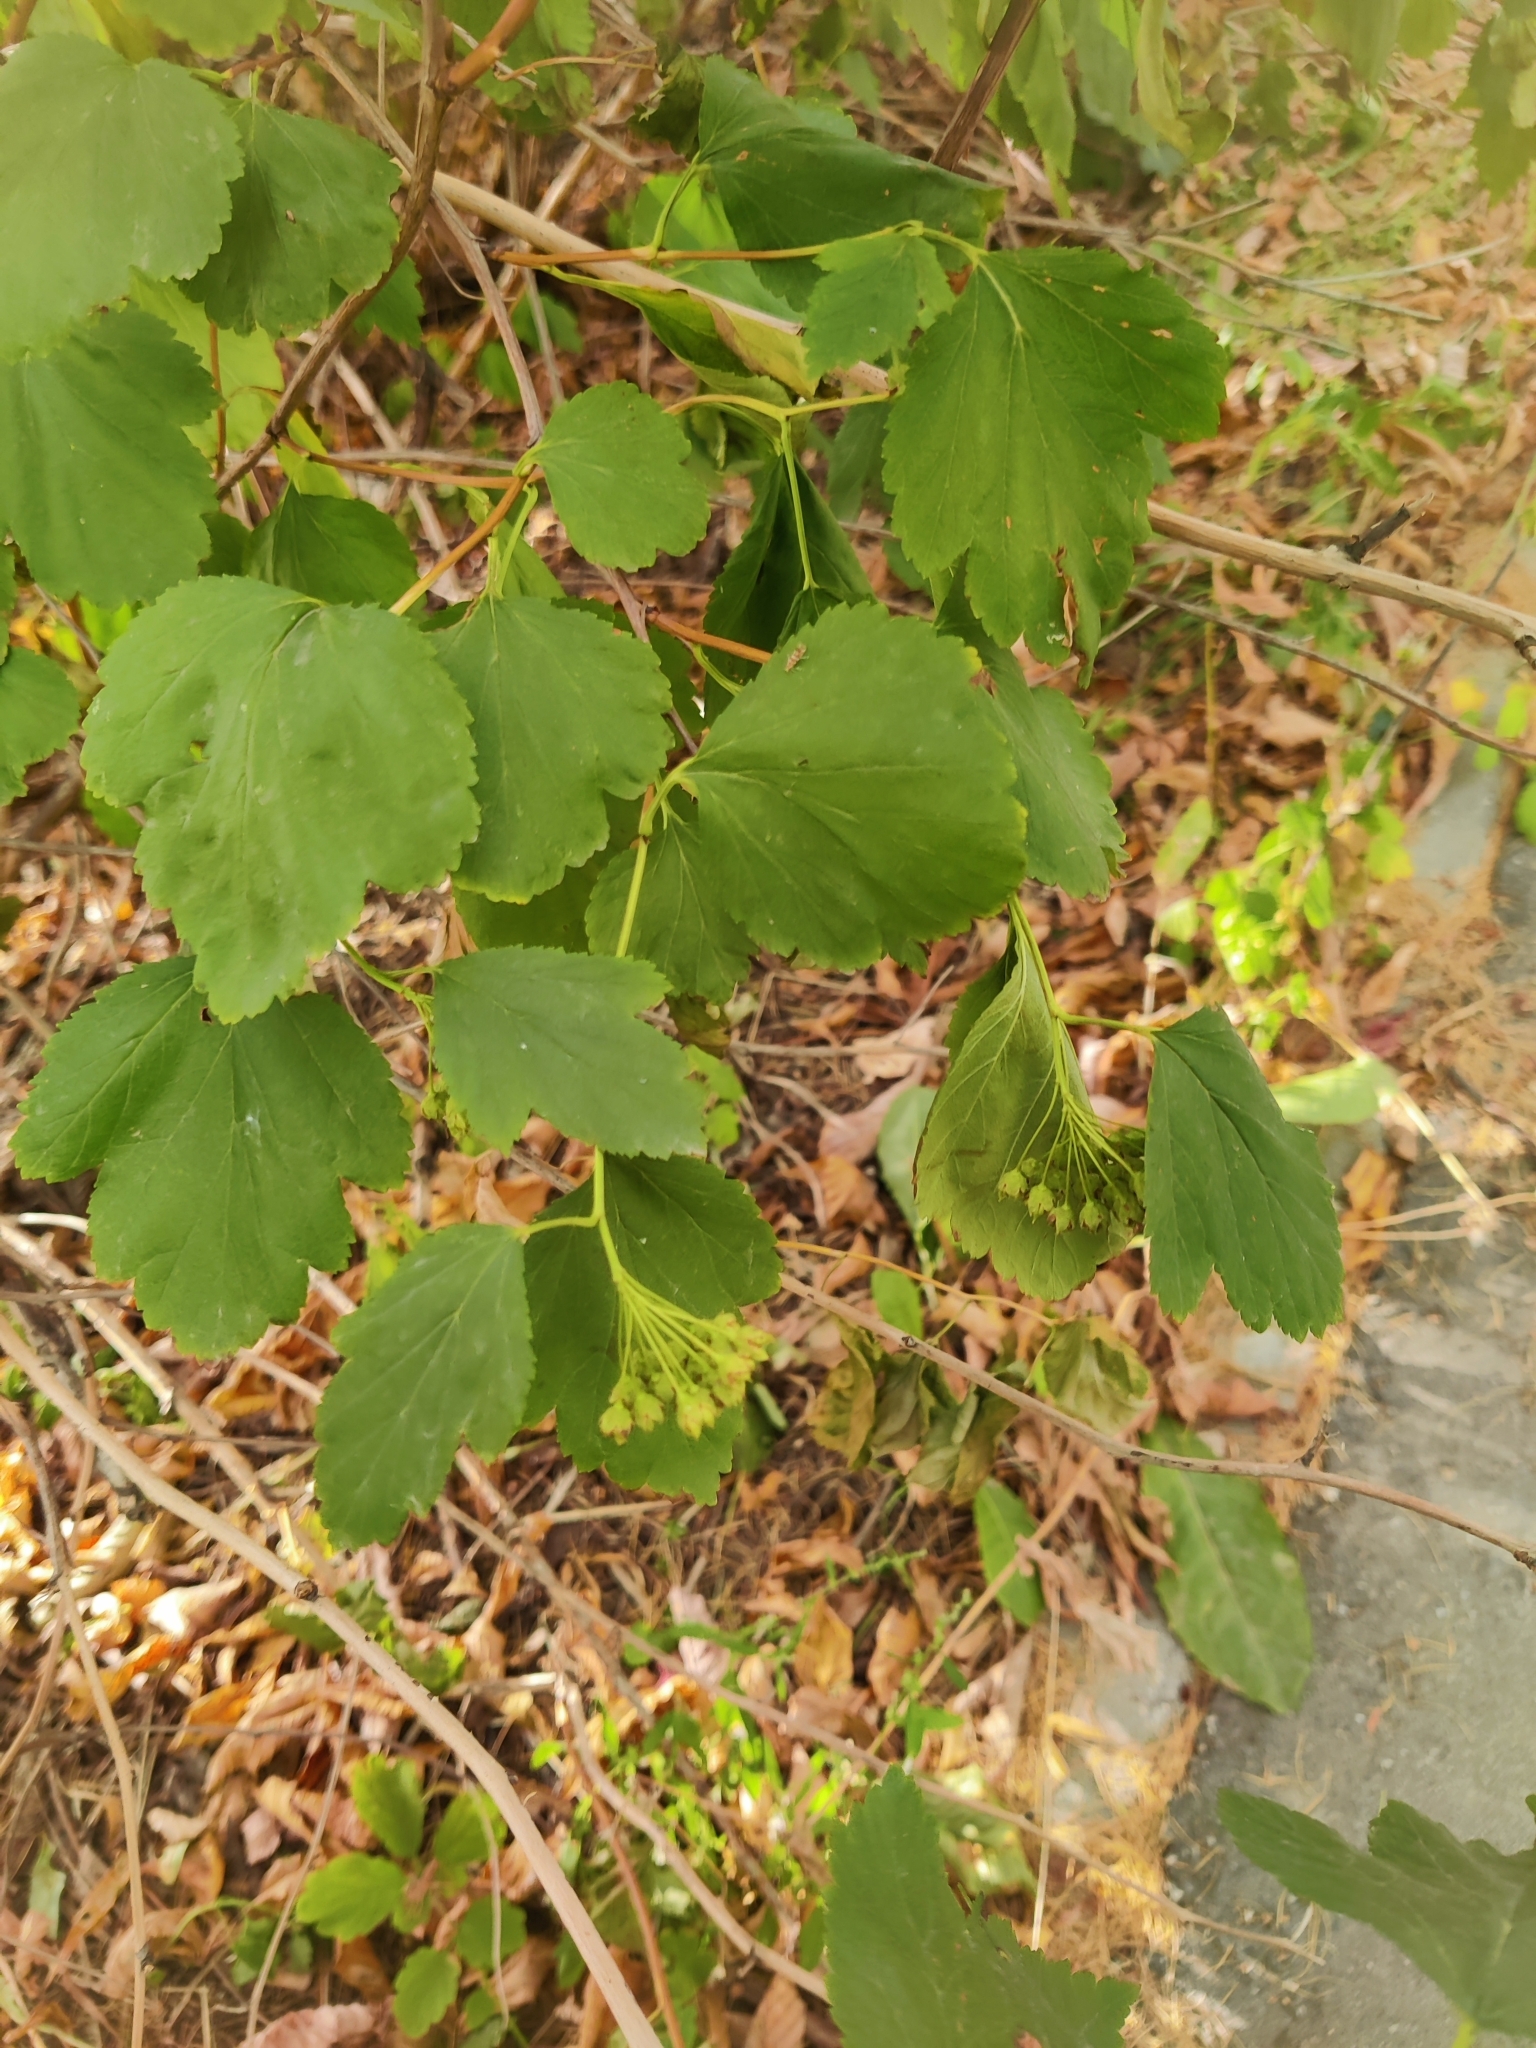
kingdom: Plantae
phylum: Tracheophyta
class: Magnoliopsida
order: Rosales
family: Rosaceae
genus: Physocarpus
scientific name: Physocarpus opulifolius
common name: Ninebark
